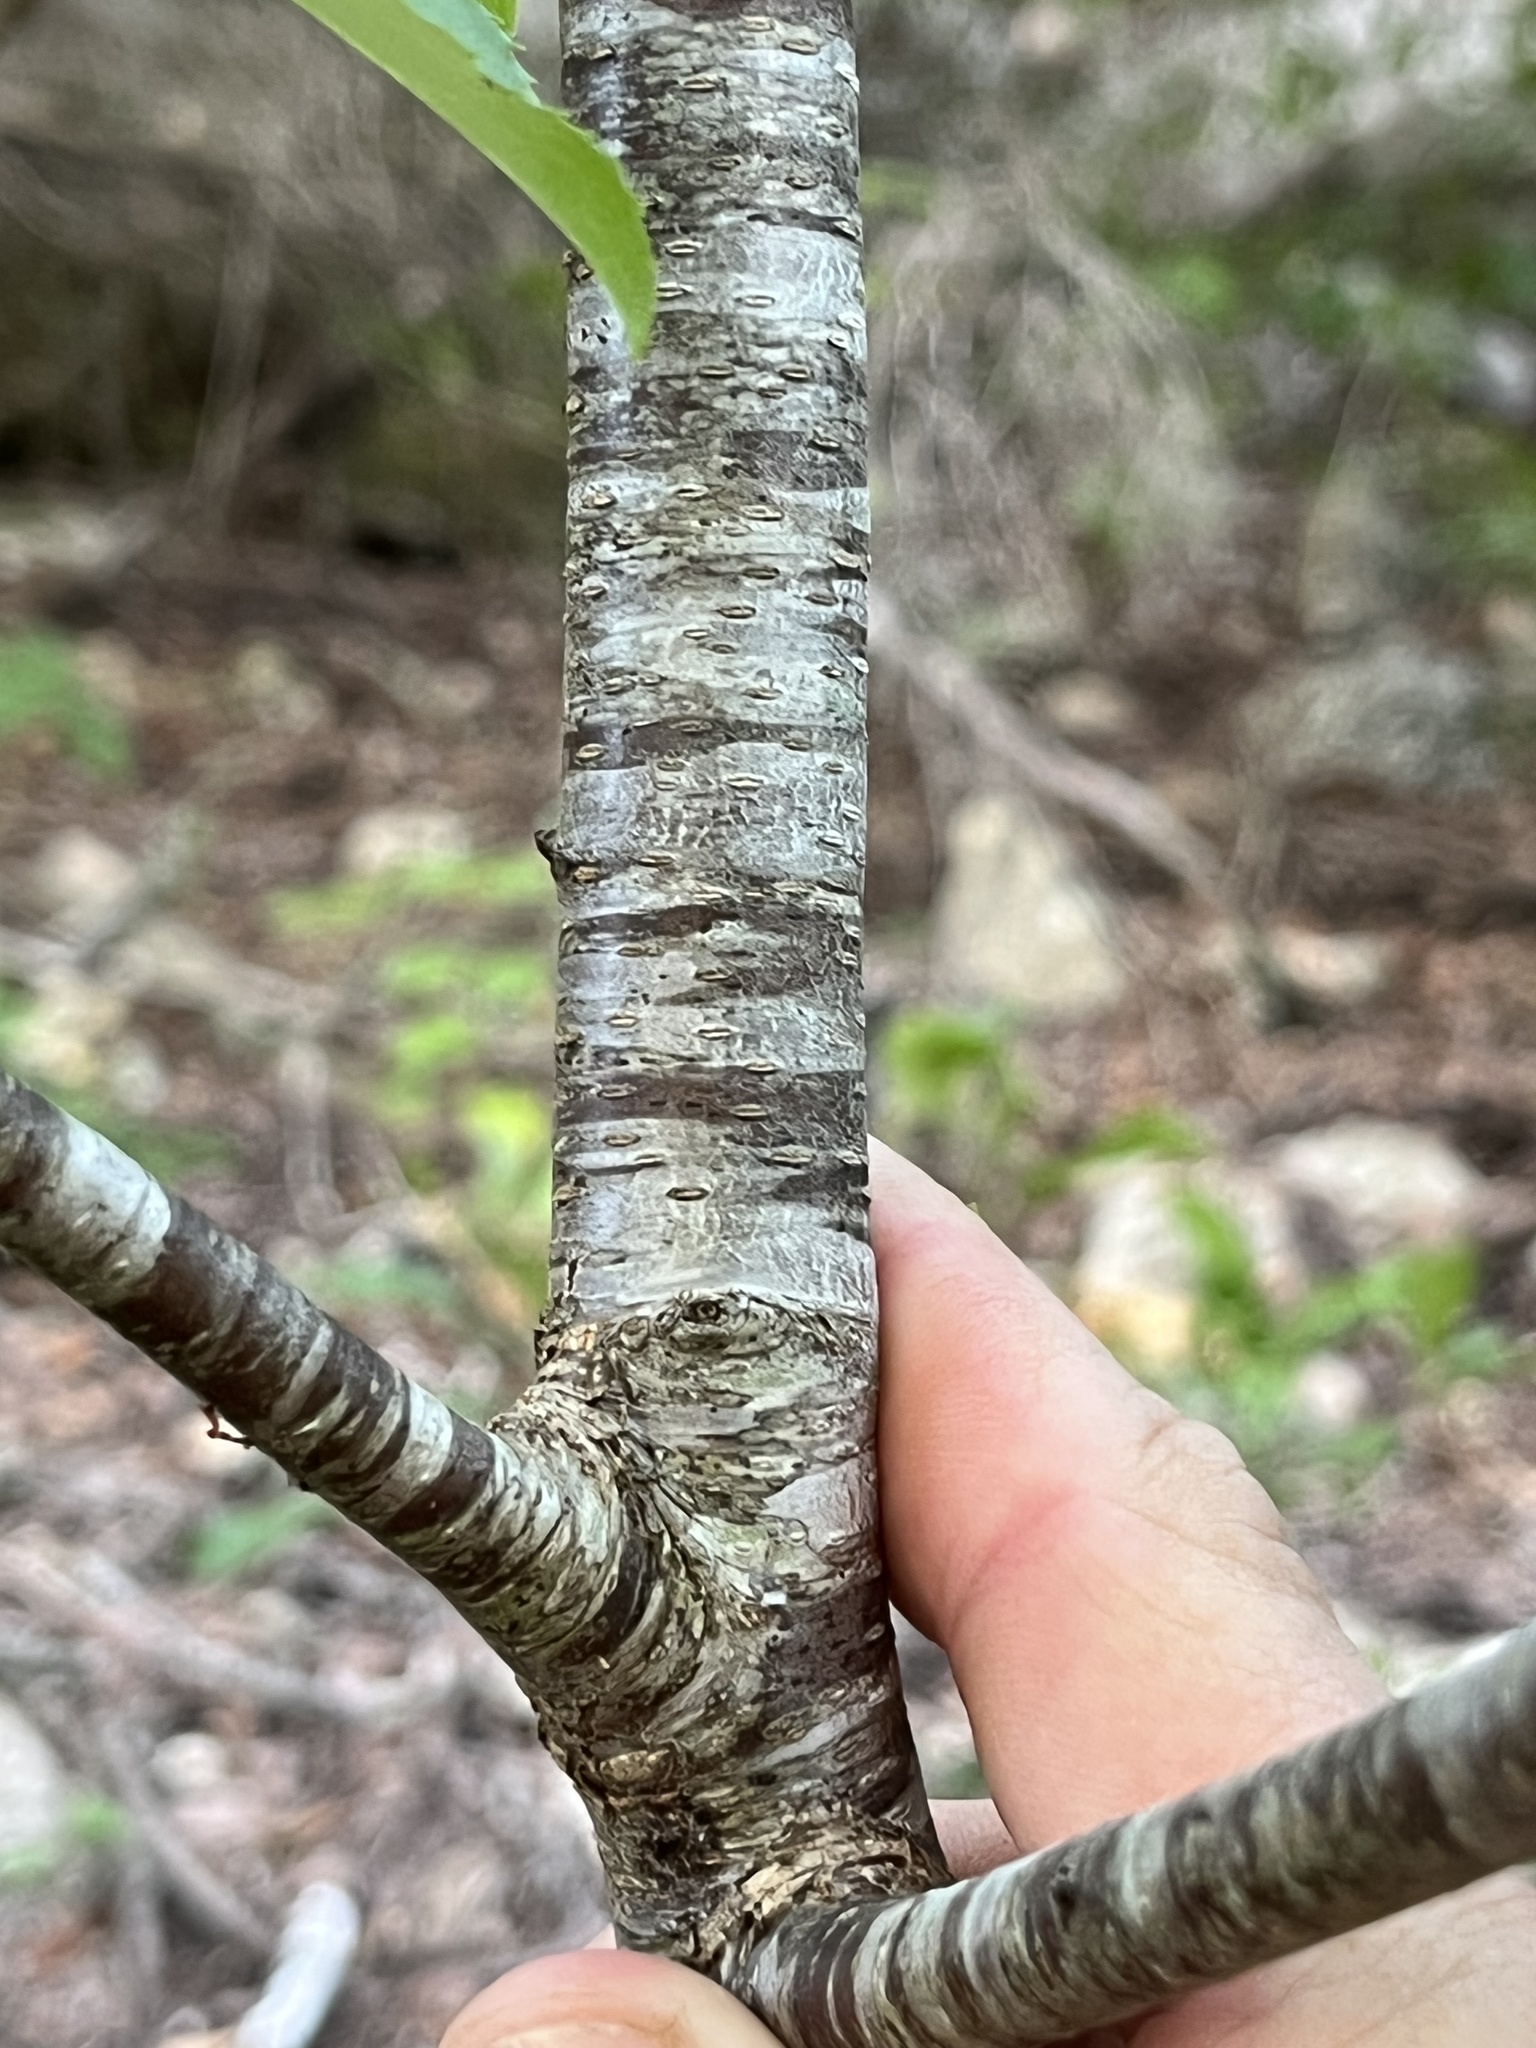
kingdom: Plantae
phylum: Tracheophyta
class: Magnoliopsida
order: Rosales
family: Rosaceae
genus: Prunus
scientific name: Prunus serotina
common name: Black cherry
